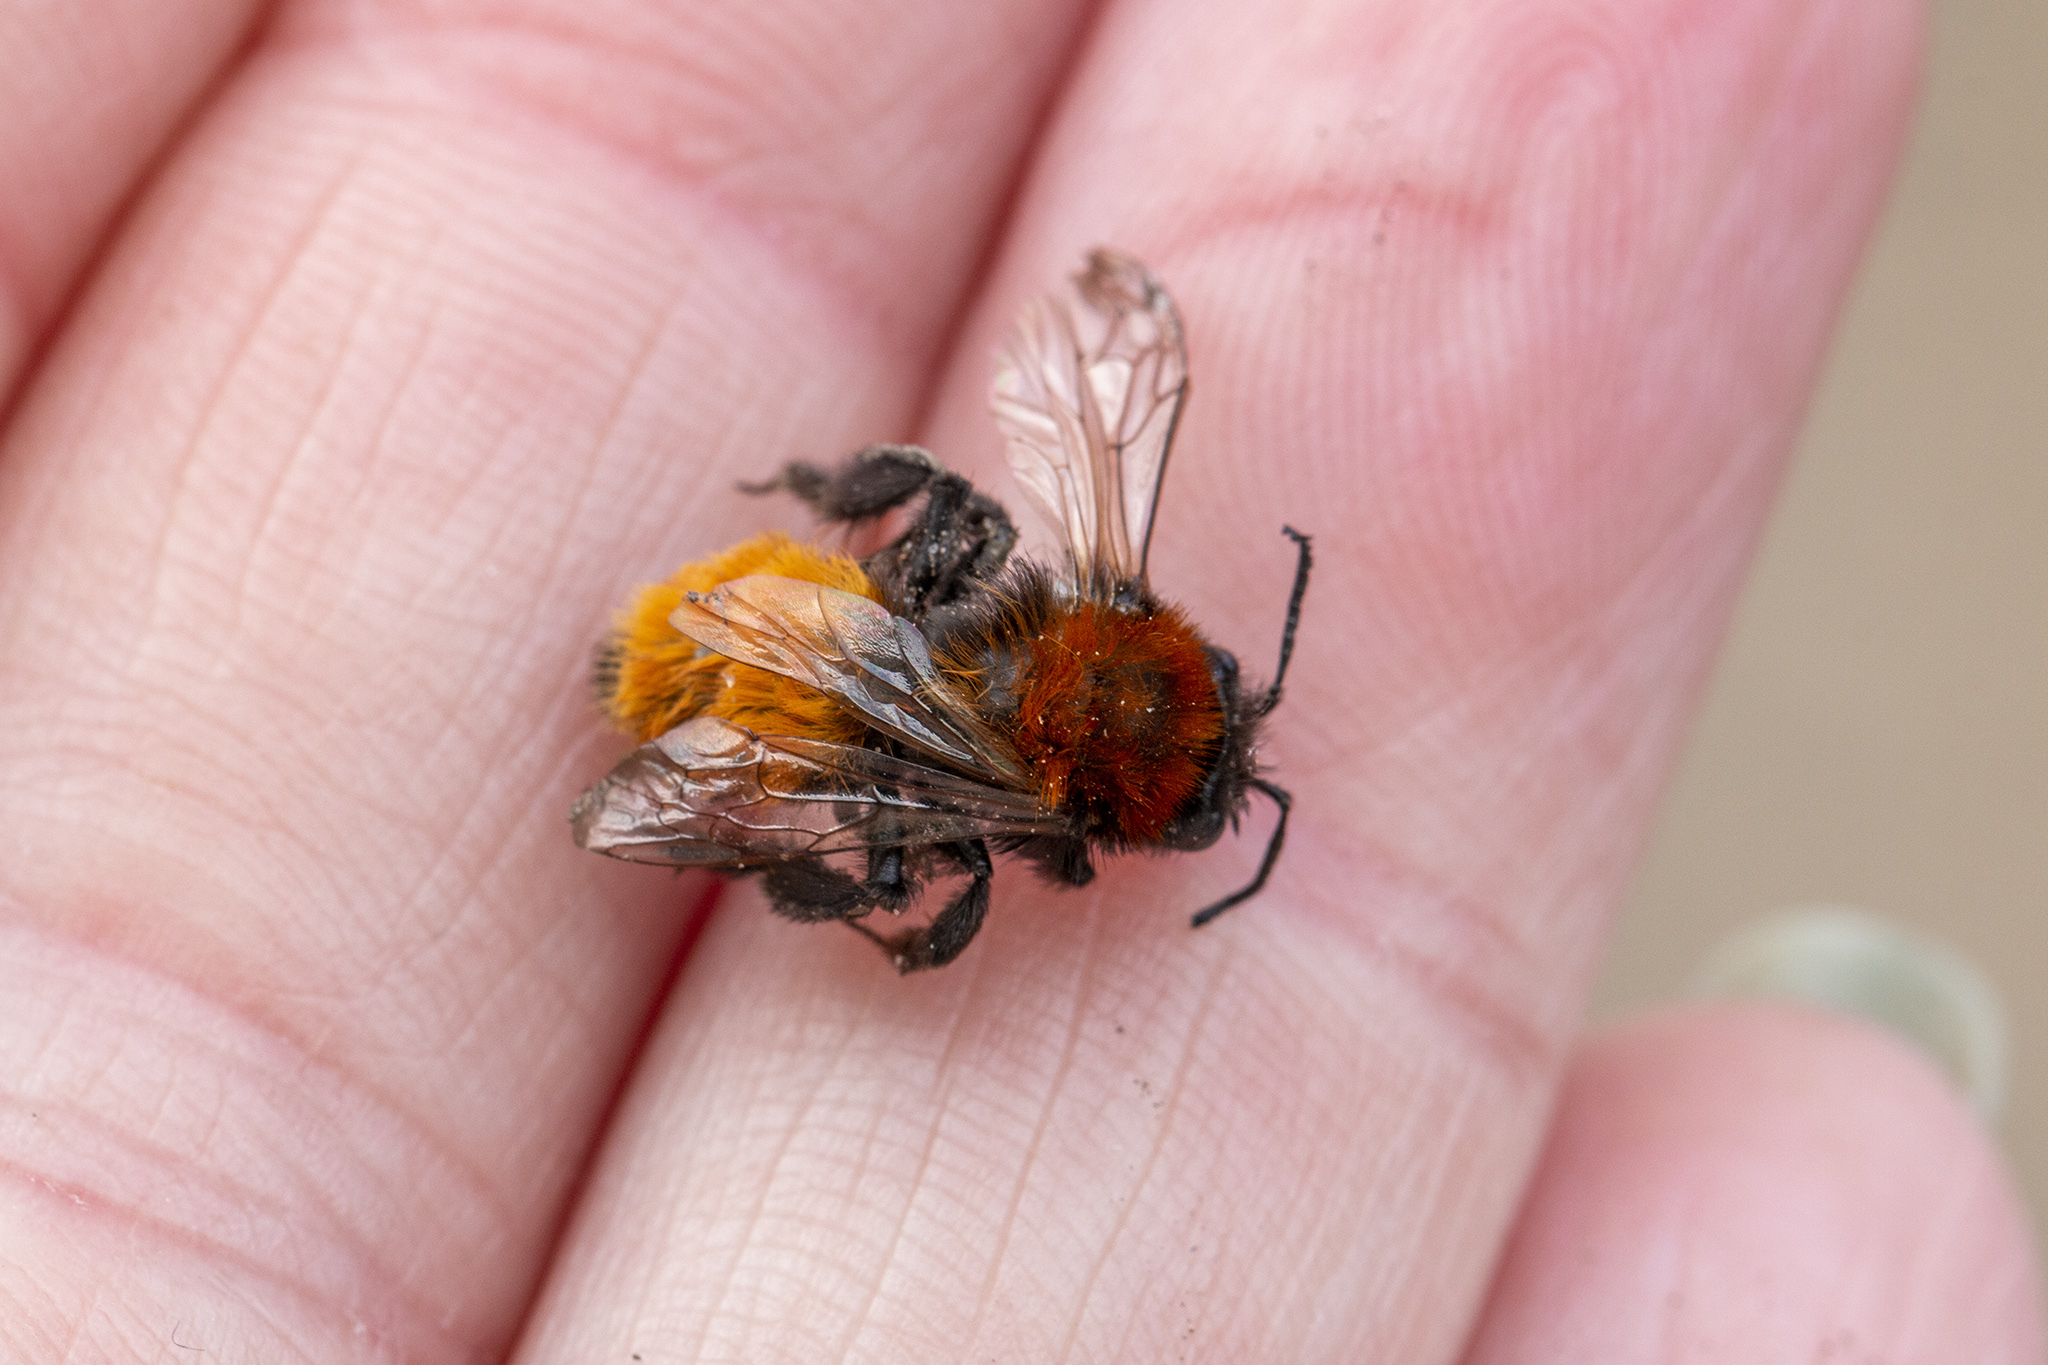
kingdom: Animalia
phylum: Arthropoda
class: Insecta
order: Hymenoptera
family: Andrenidae
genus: Andrena
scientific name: Andrena fulva
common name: Tawny mining bee
